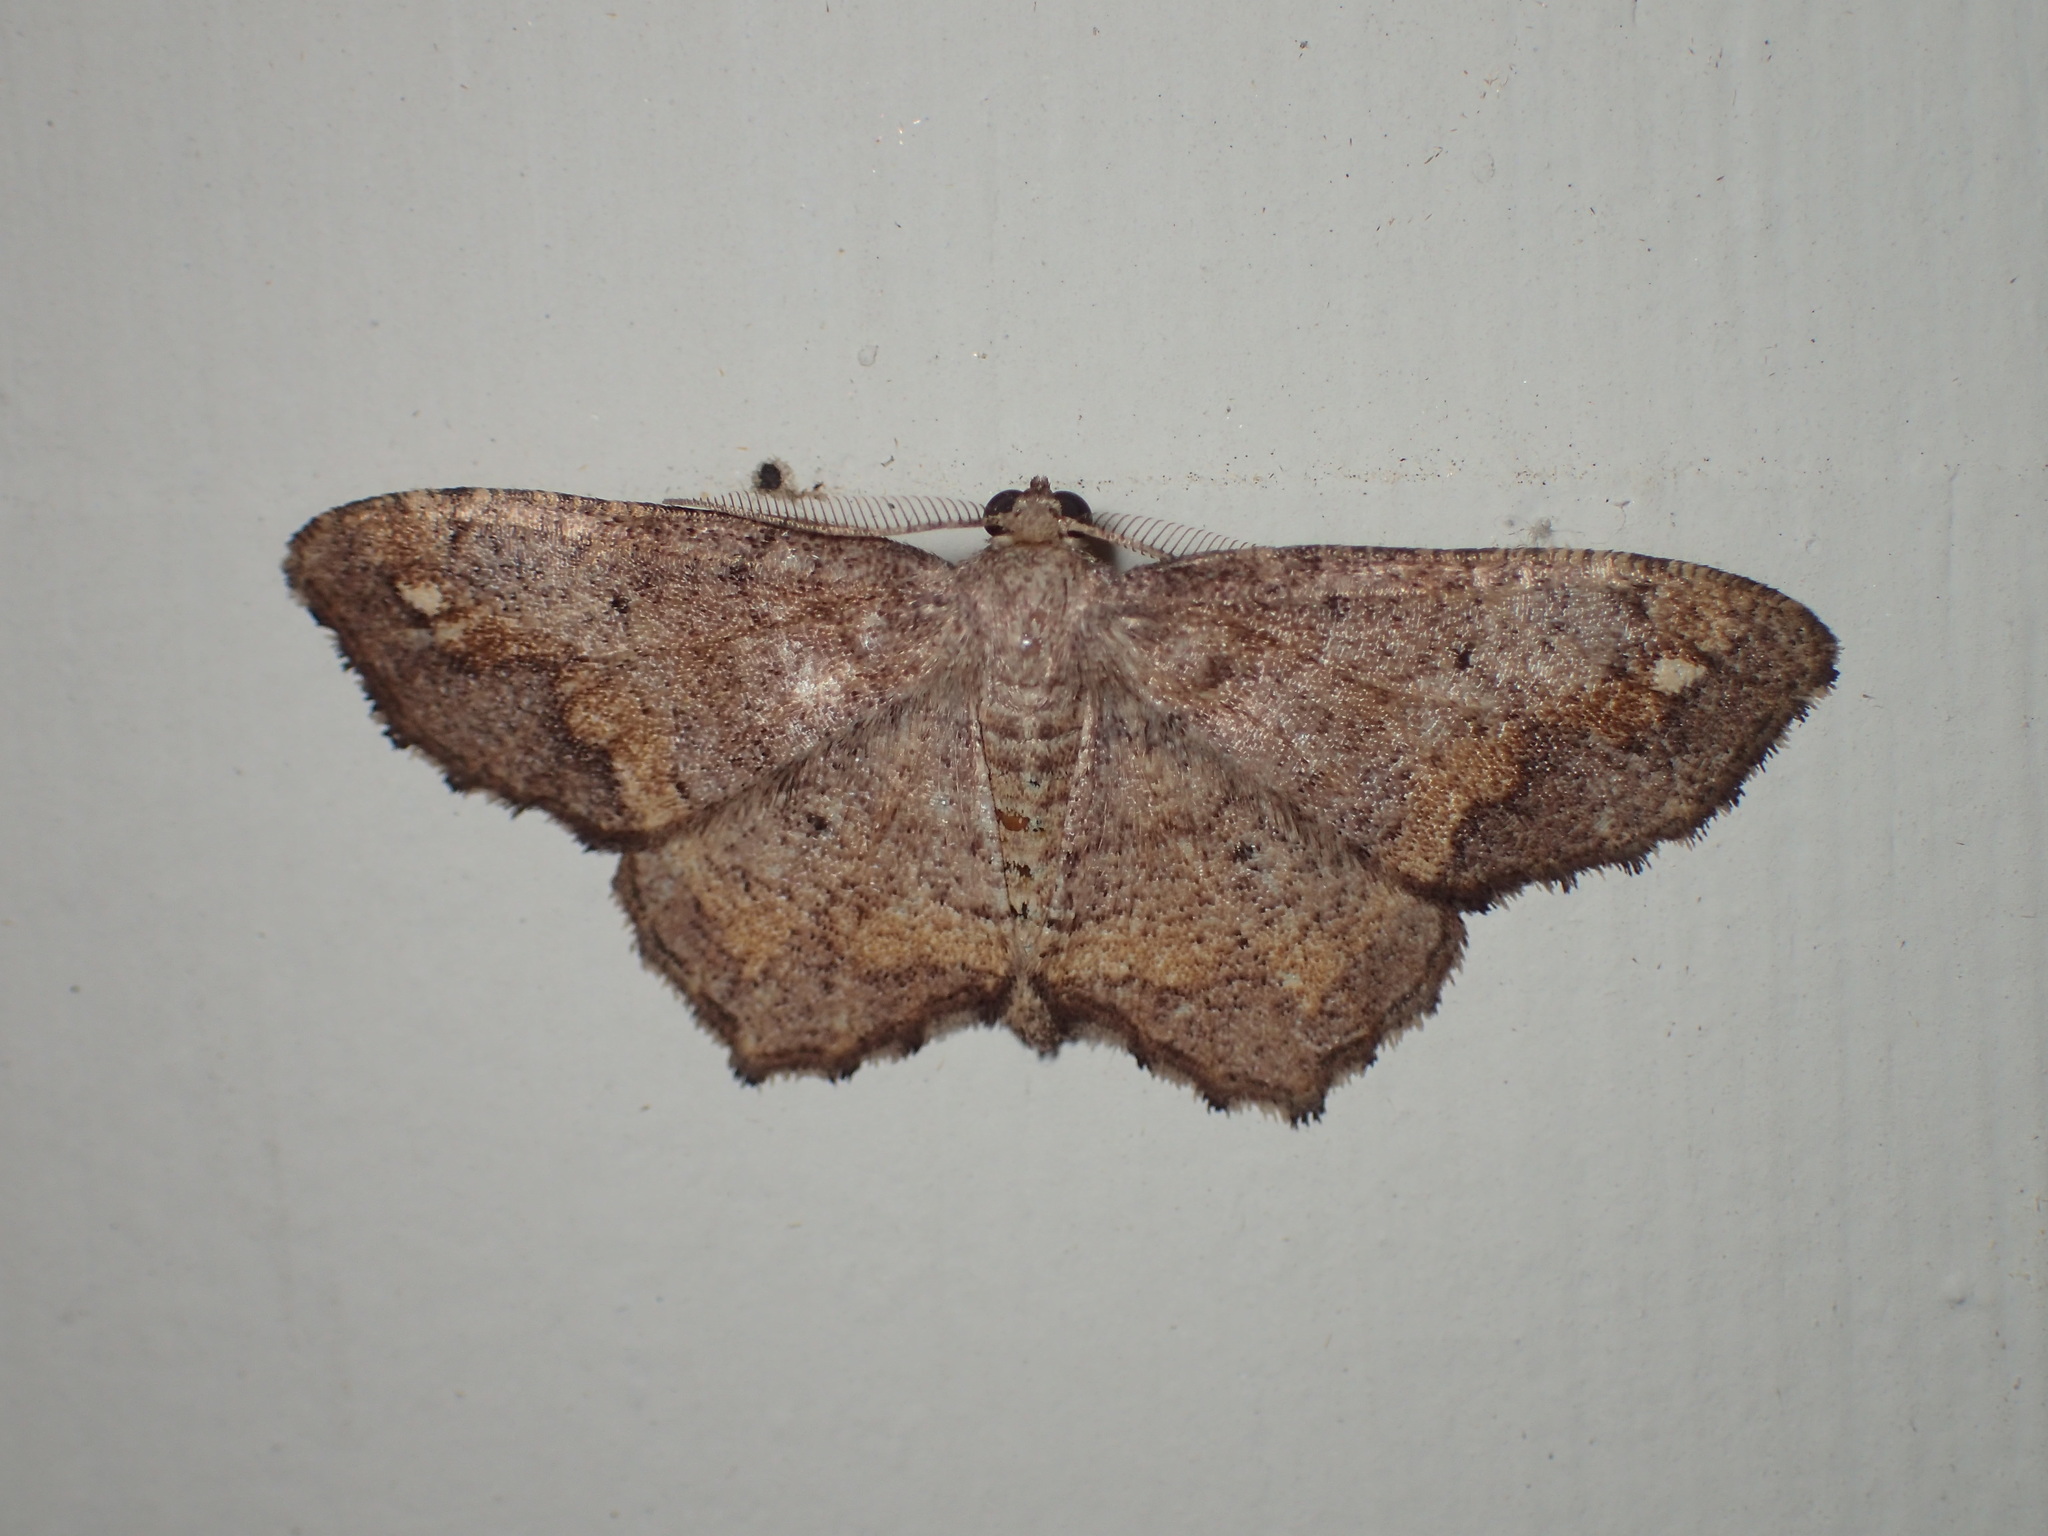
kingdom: Animalia
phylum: Arthropoda
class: Insecta
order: Lepidoptera
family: Geometridae
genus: Hypagyrtis
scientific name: Hypagyrtis unipunctata
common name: One-spotted variant
